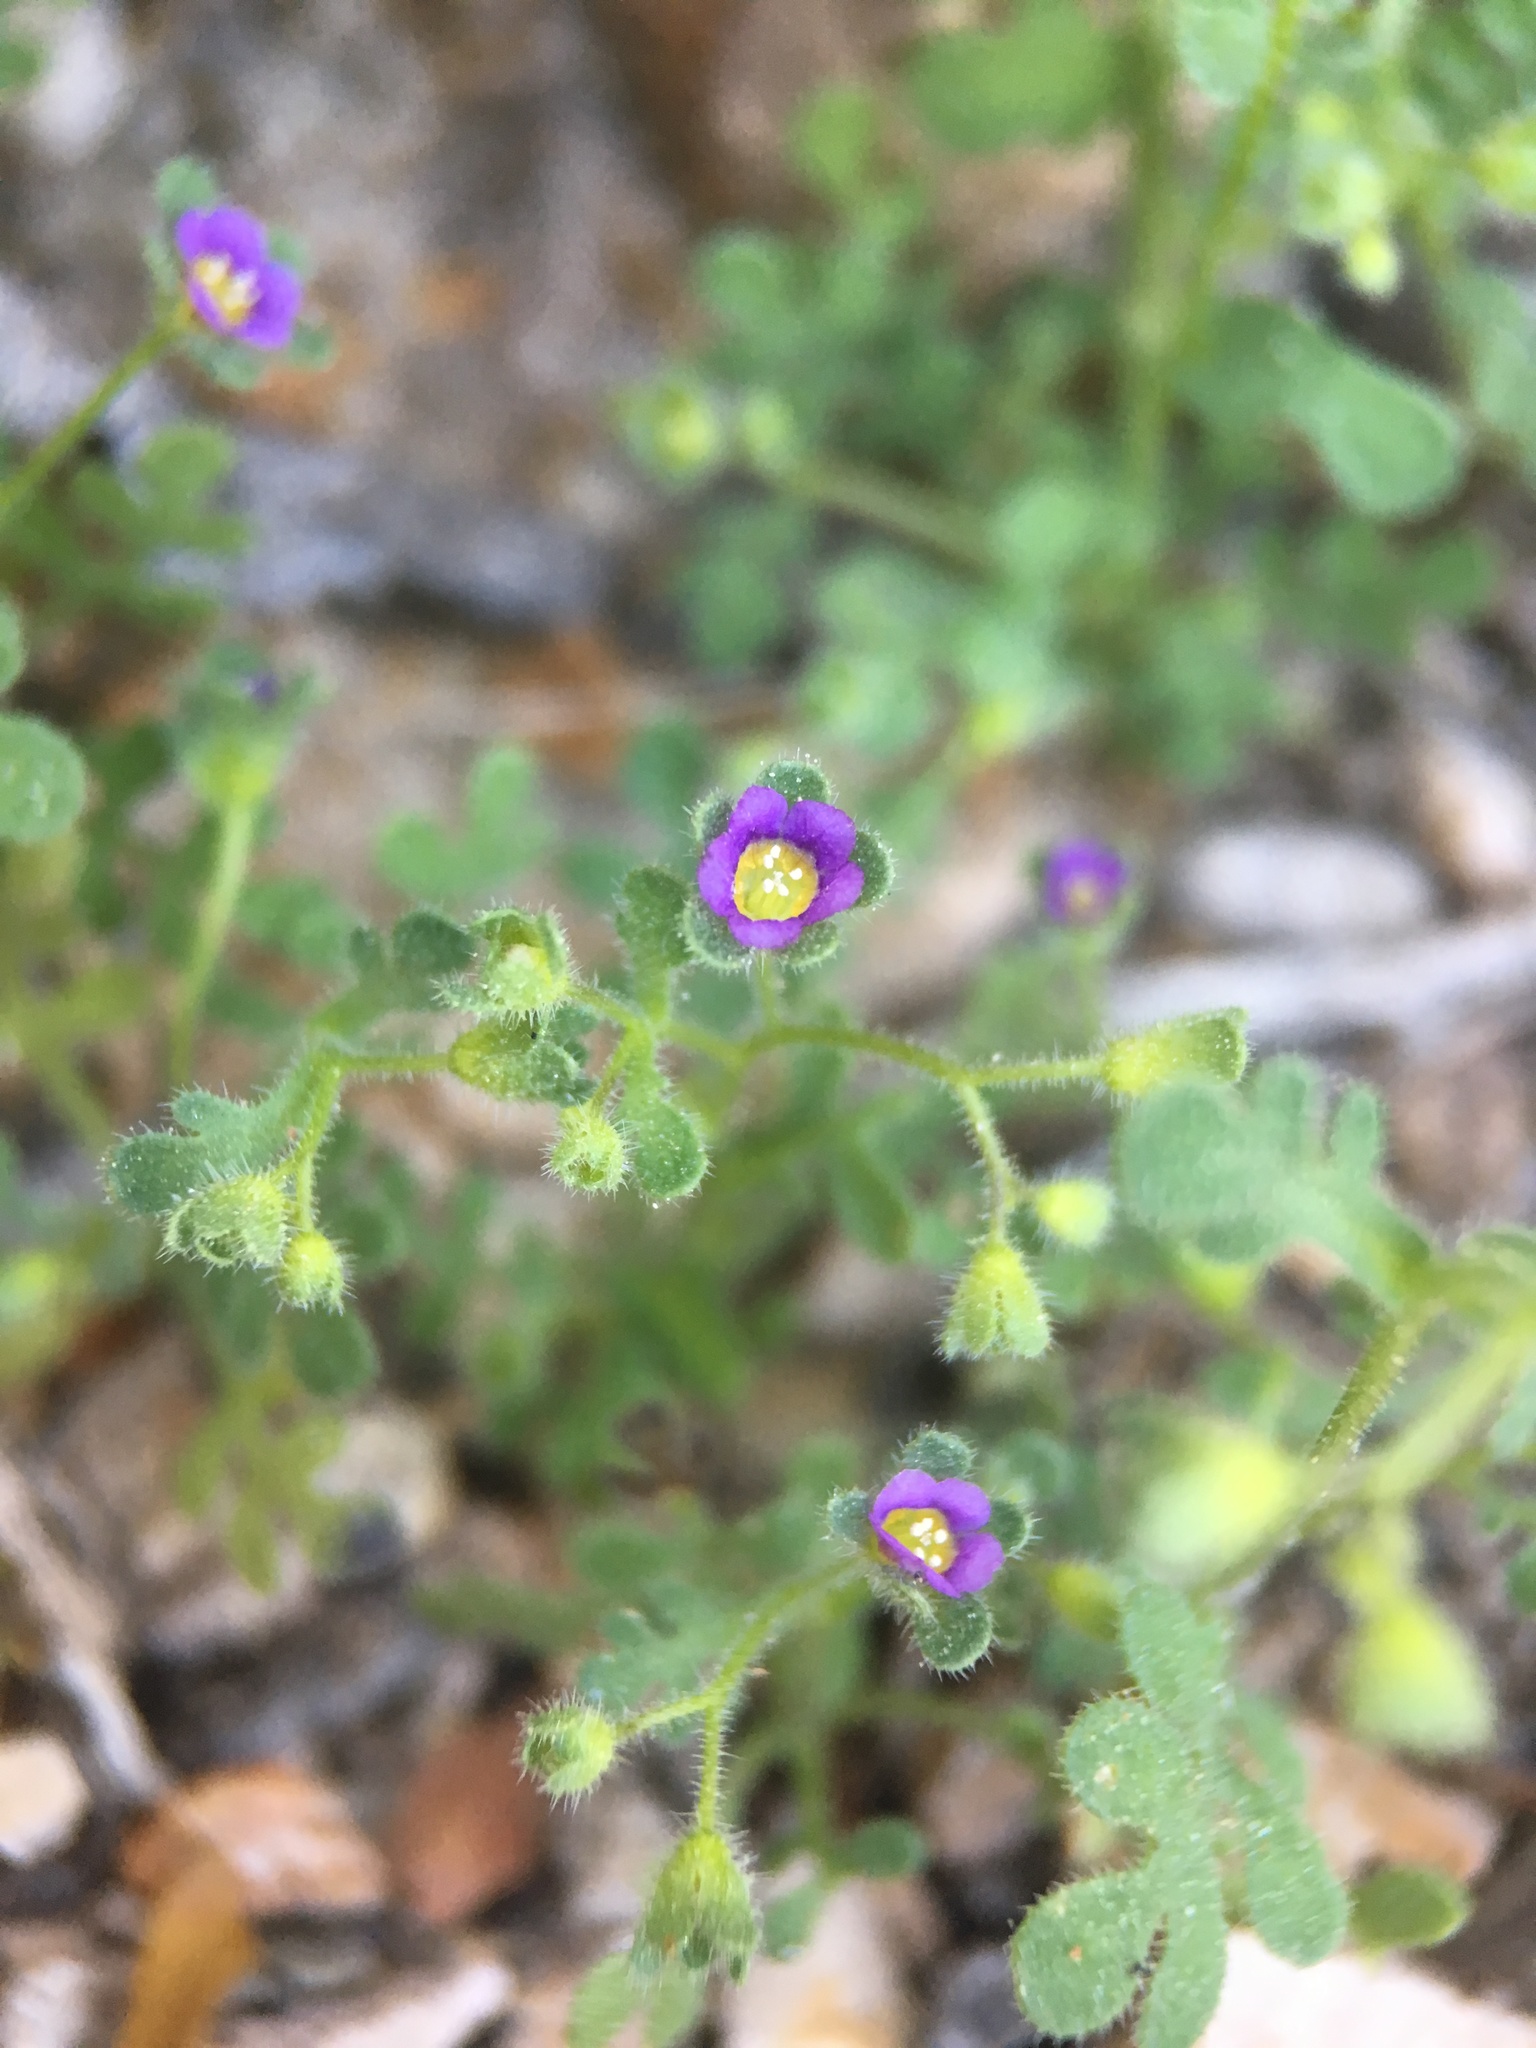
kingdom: Plantae
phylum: Tracheophyta
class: Magnoliopsida
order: Boraginales
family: Hydrophyllaceae
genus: Eucrypta
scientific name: Eucrypta micrantha
